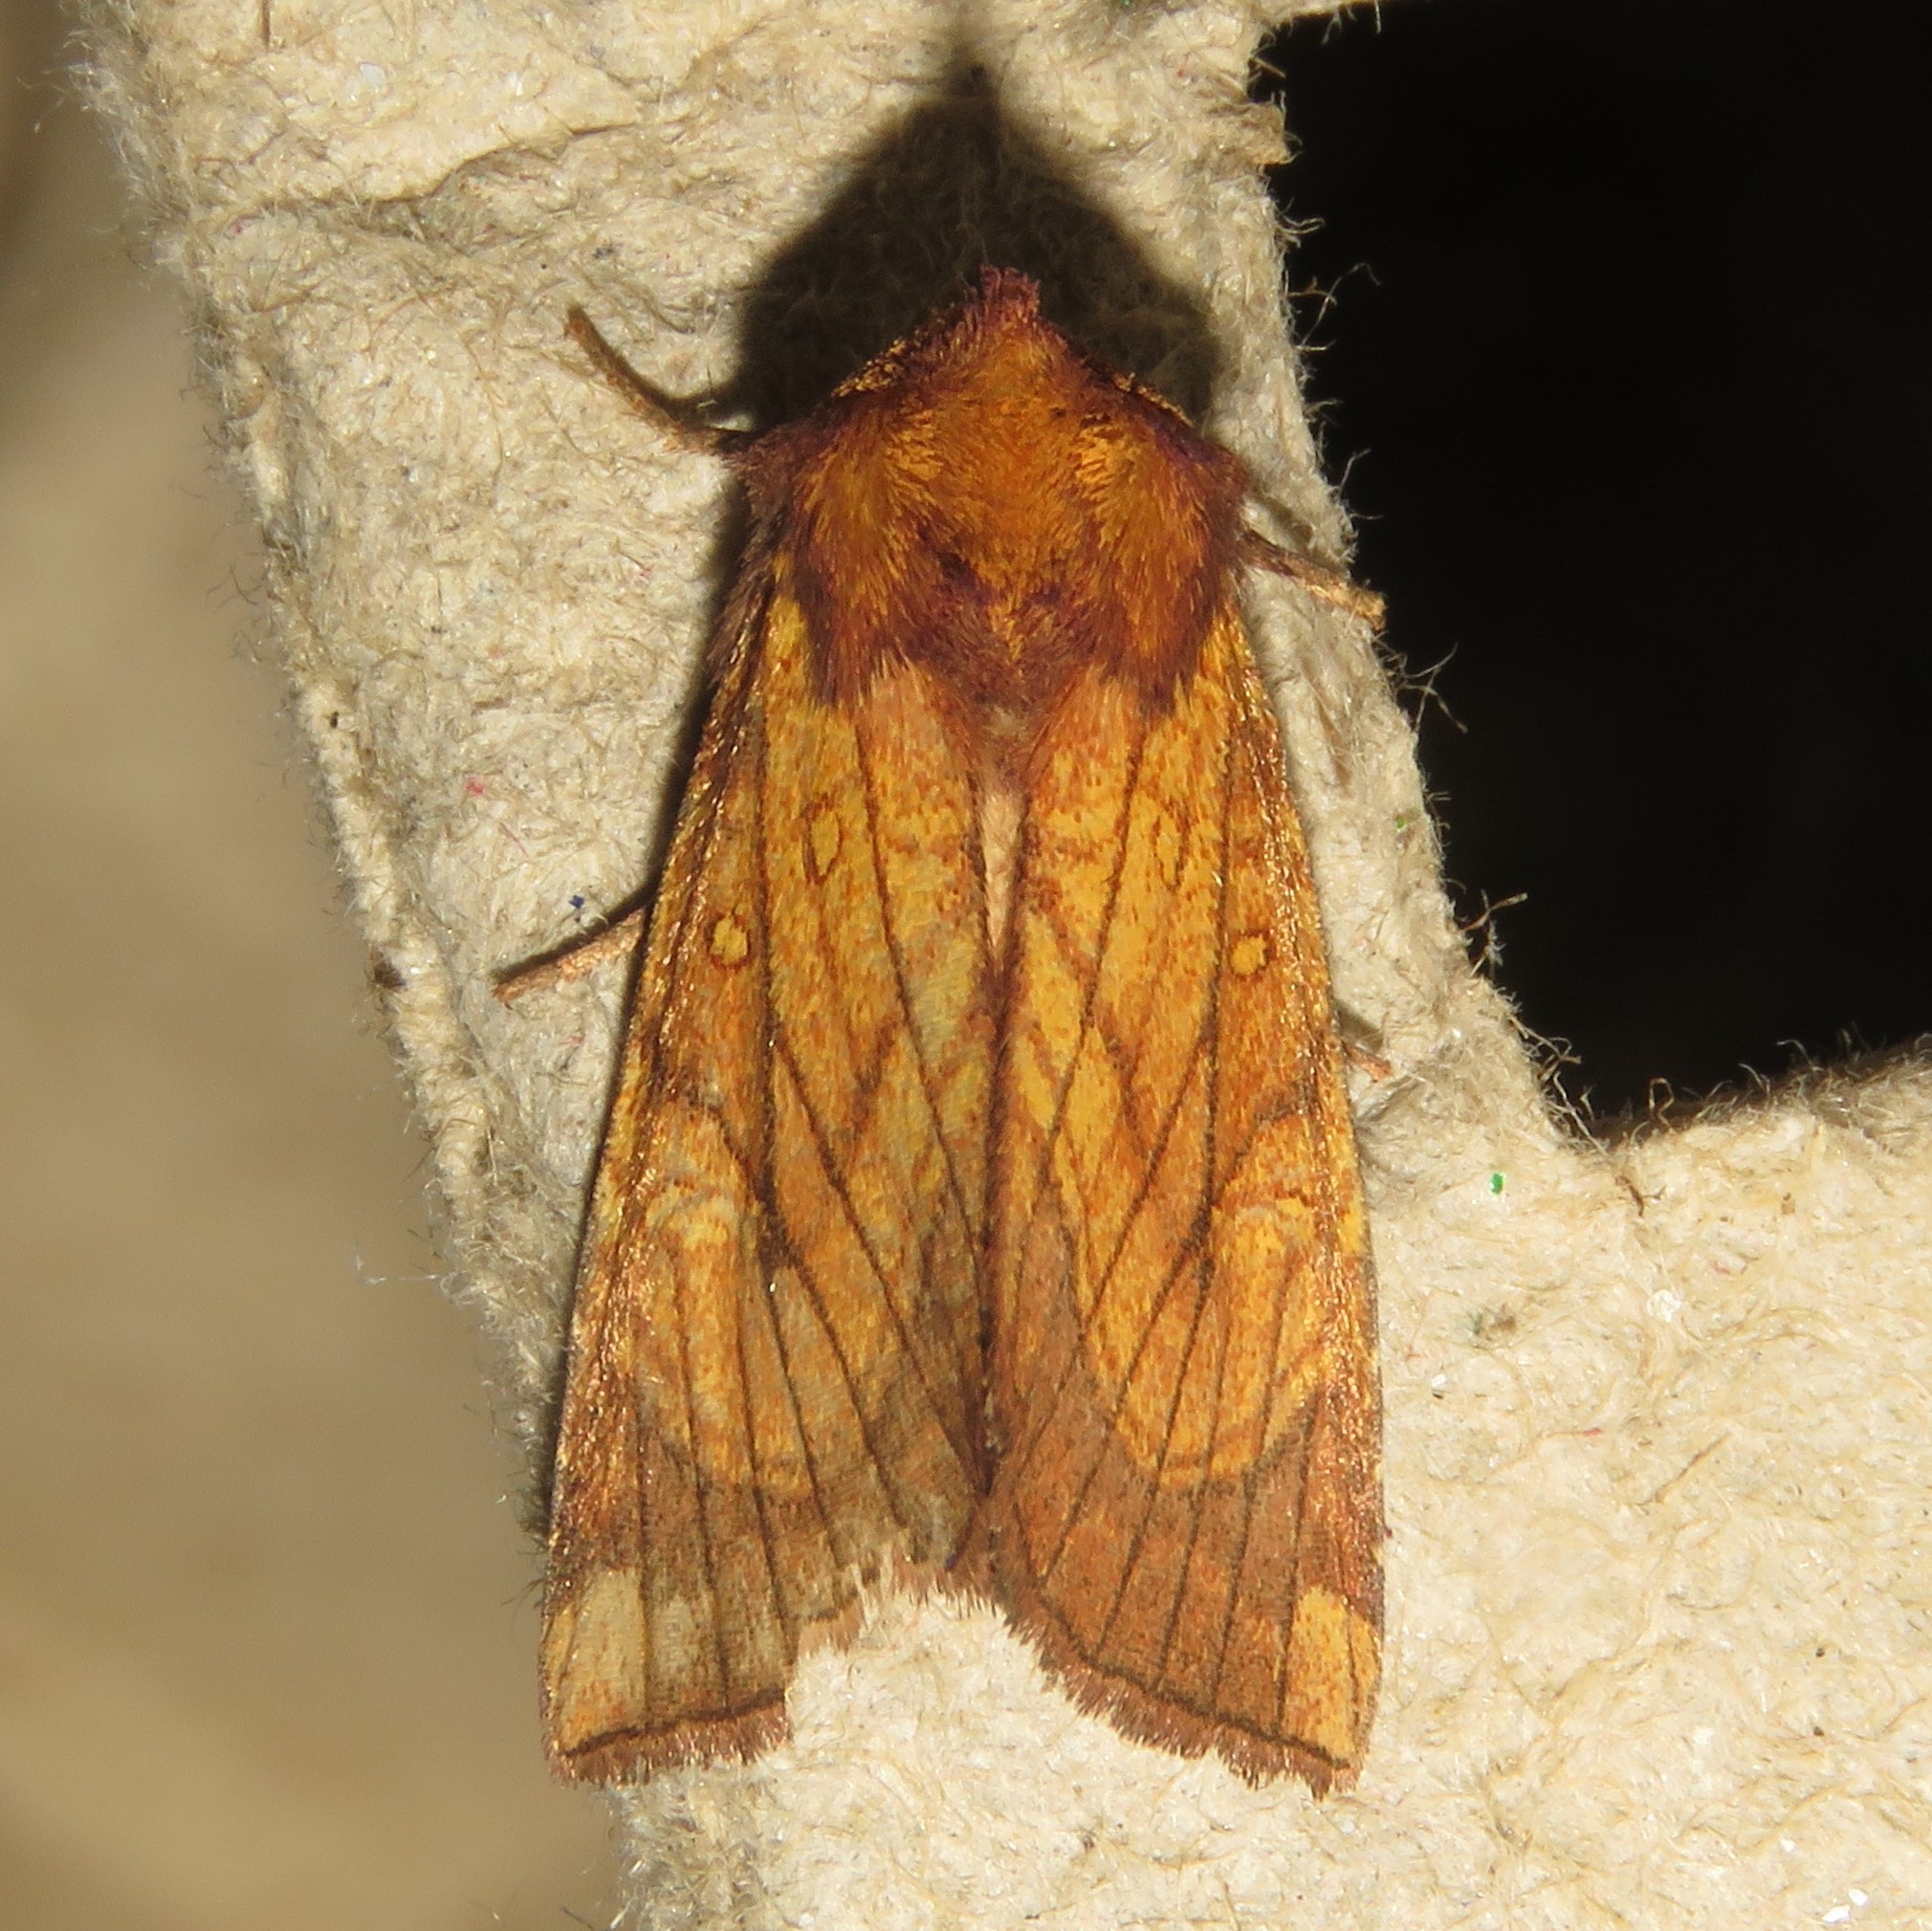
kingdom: Animalia
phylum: Arthropoda
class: Insecta
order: Lepidoptera
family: Noctuidae
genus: Papaipema
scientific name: Papaipema inquaesita
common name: Sensitive fern borer moth
